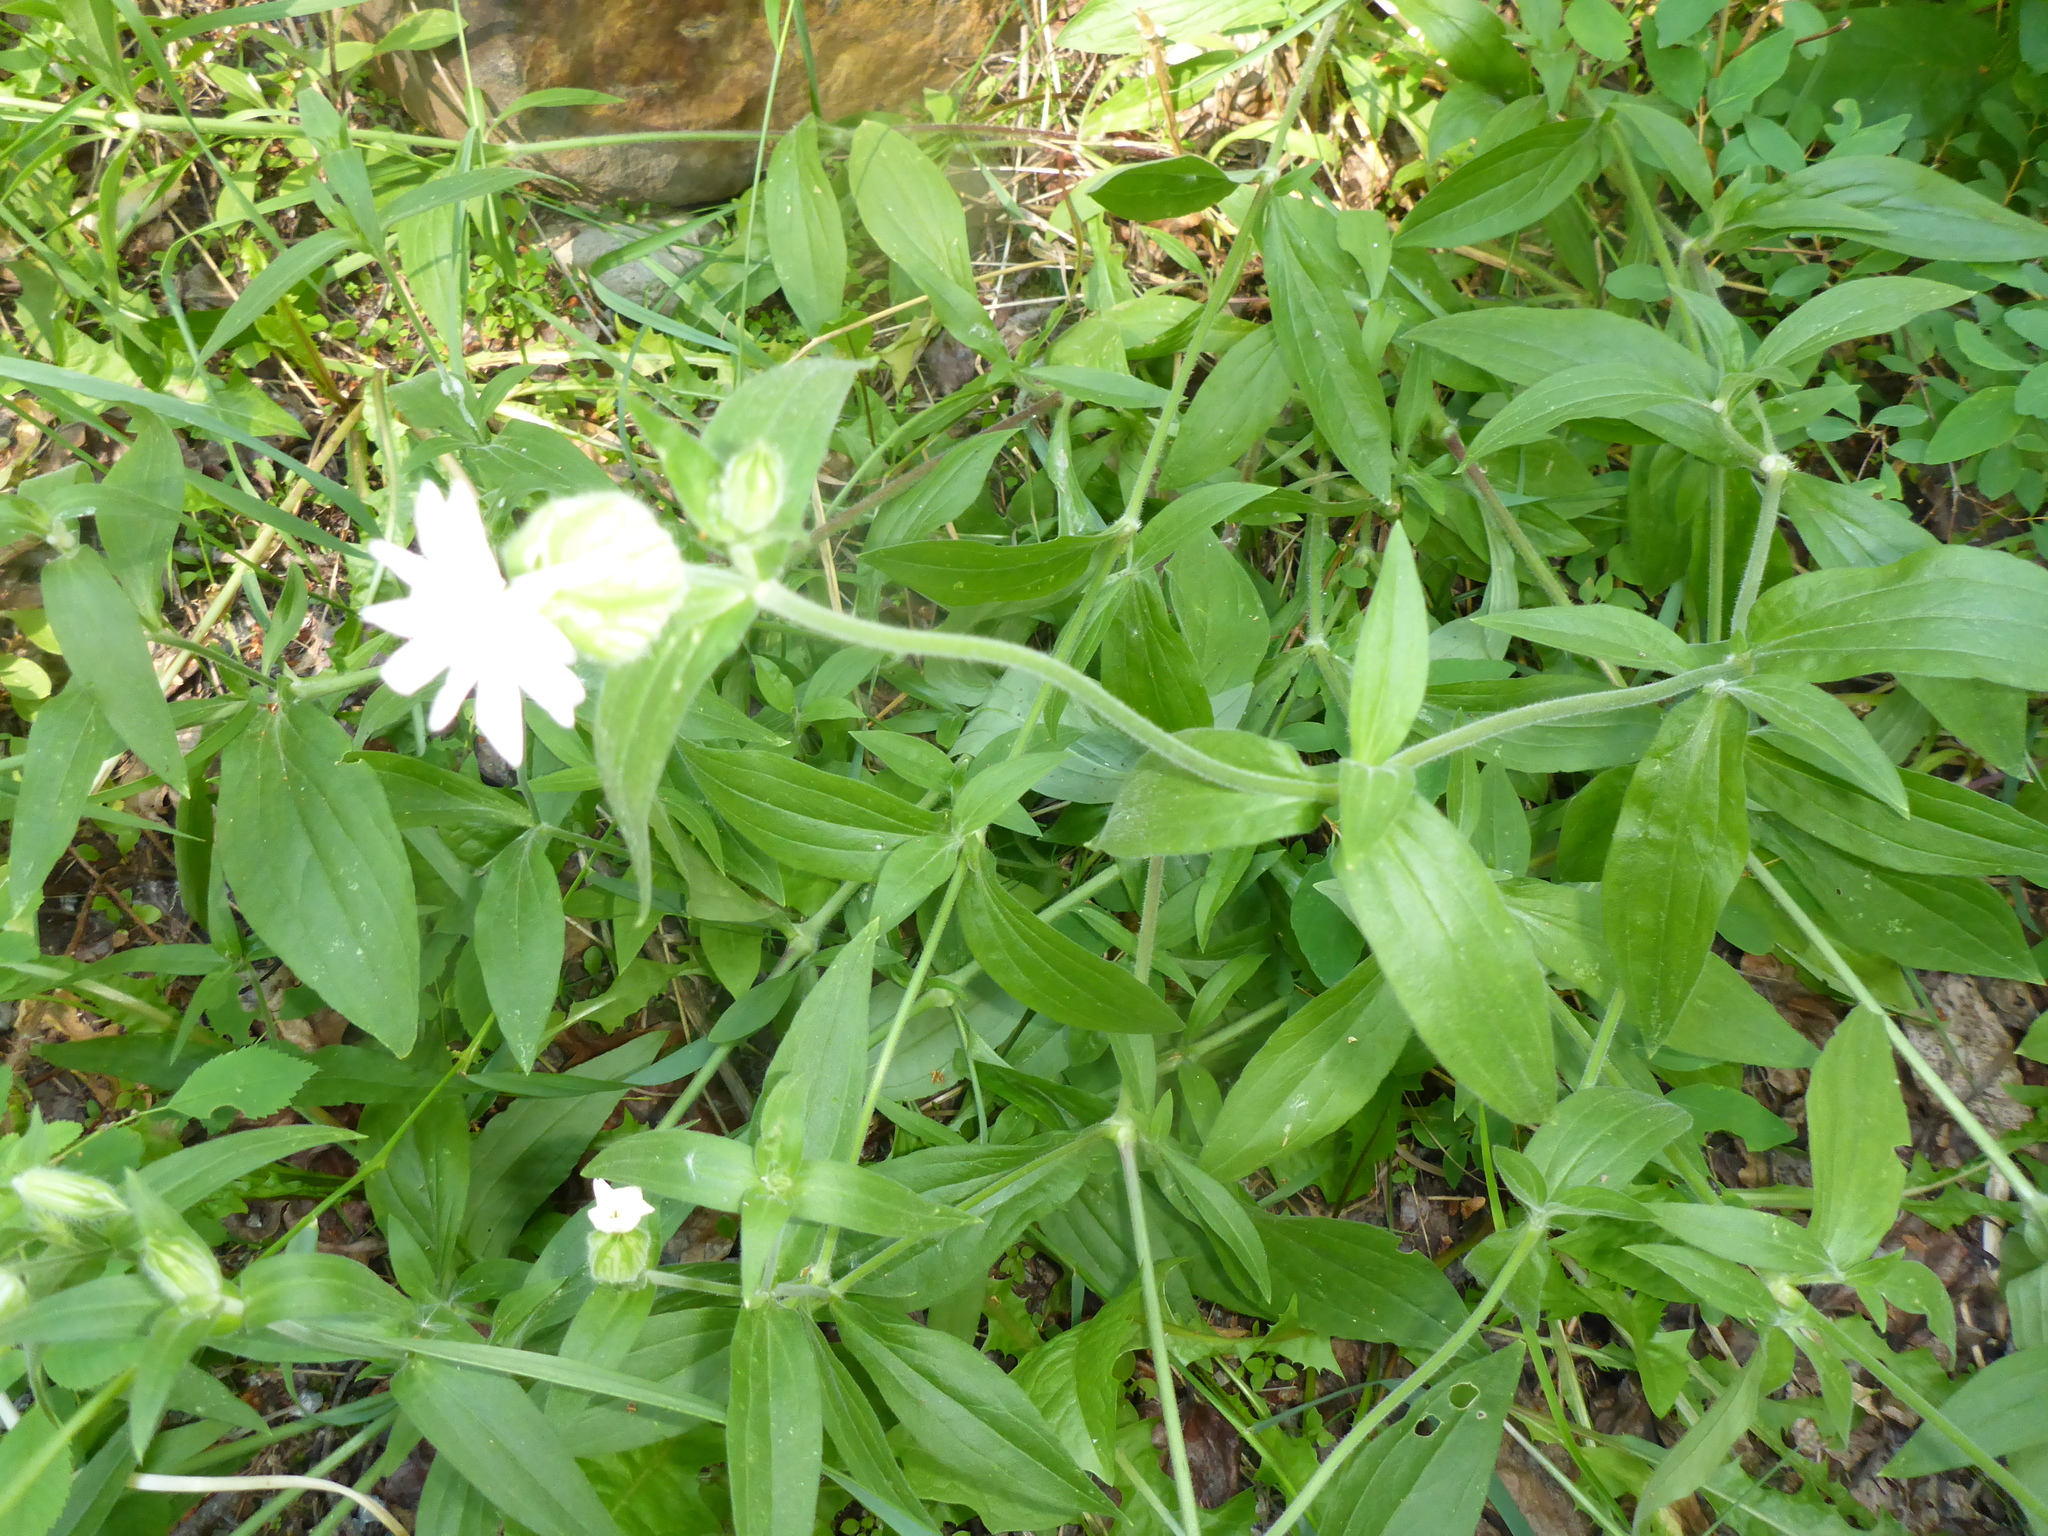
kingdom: Plantae
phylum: Tracheophyta
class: Magnoliopsida
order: Caryophyllales
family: Caryophyllaceae
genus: Silene
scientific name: Silene latifolia
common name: White campion
